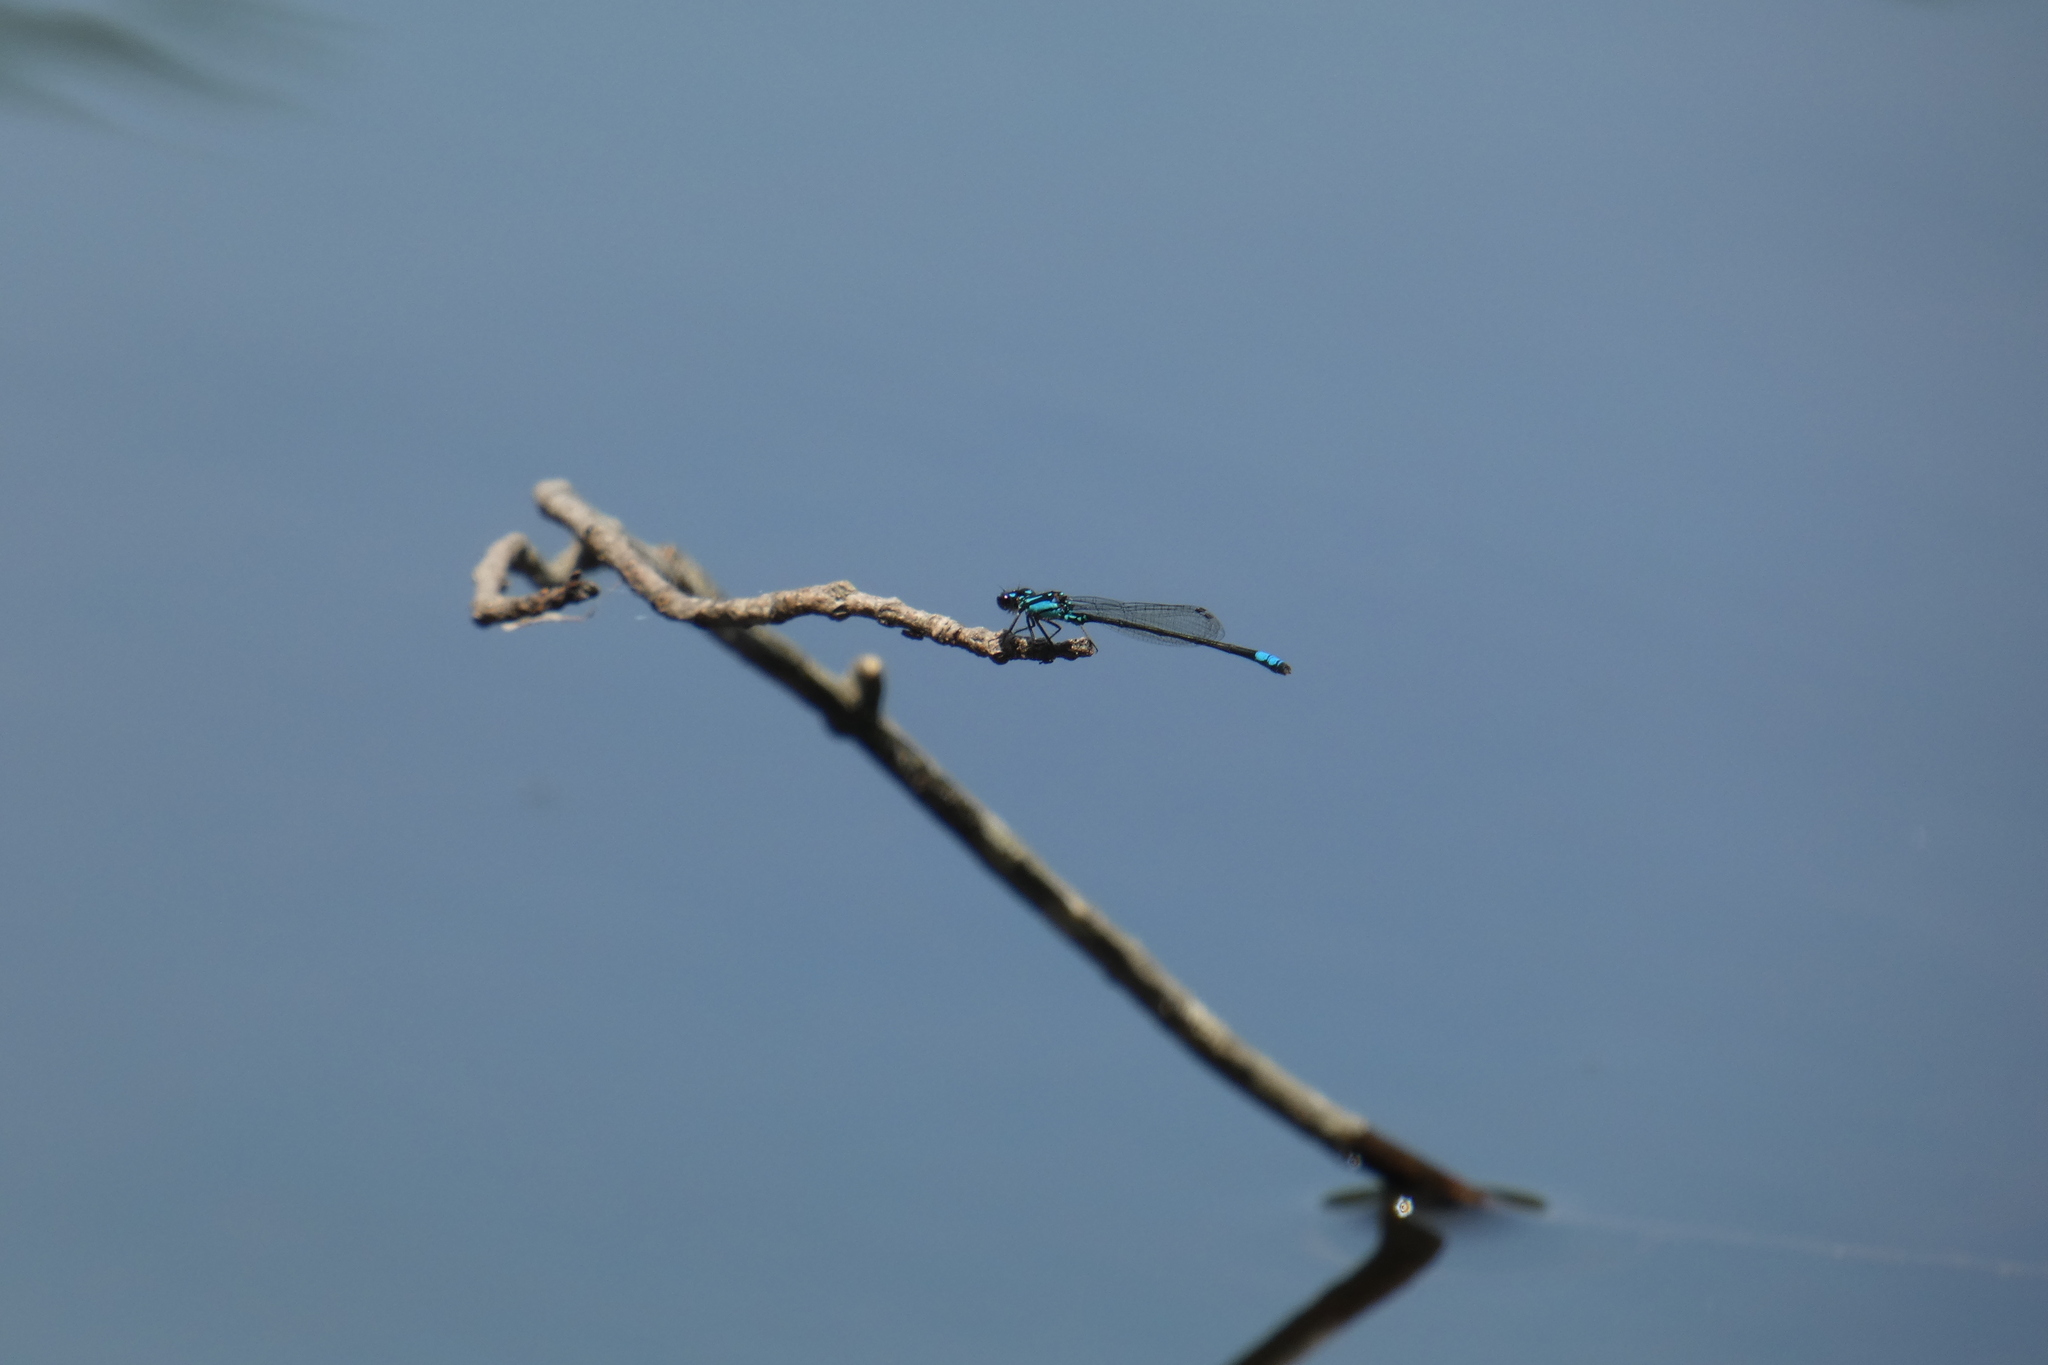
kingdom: Animalia
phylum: Arthropoda
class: Insecta
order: Odonata
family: Coenagrionidae
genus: Enallagma
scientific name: Enallagma geminatum
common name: Skimming bluet
